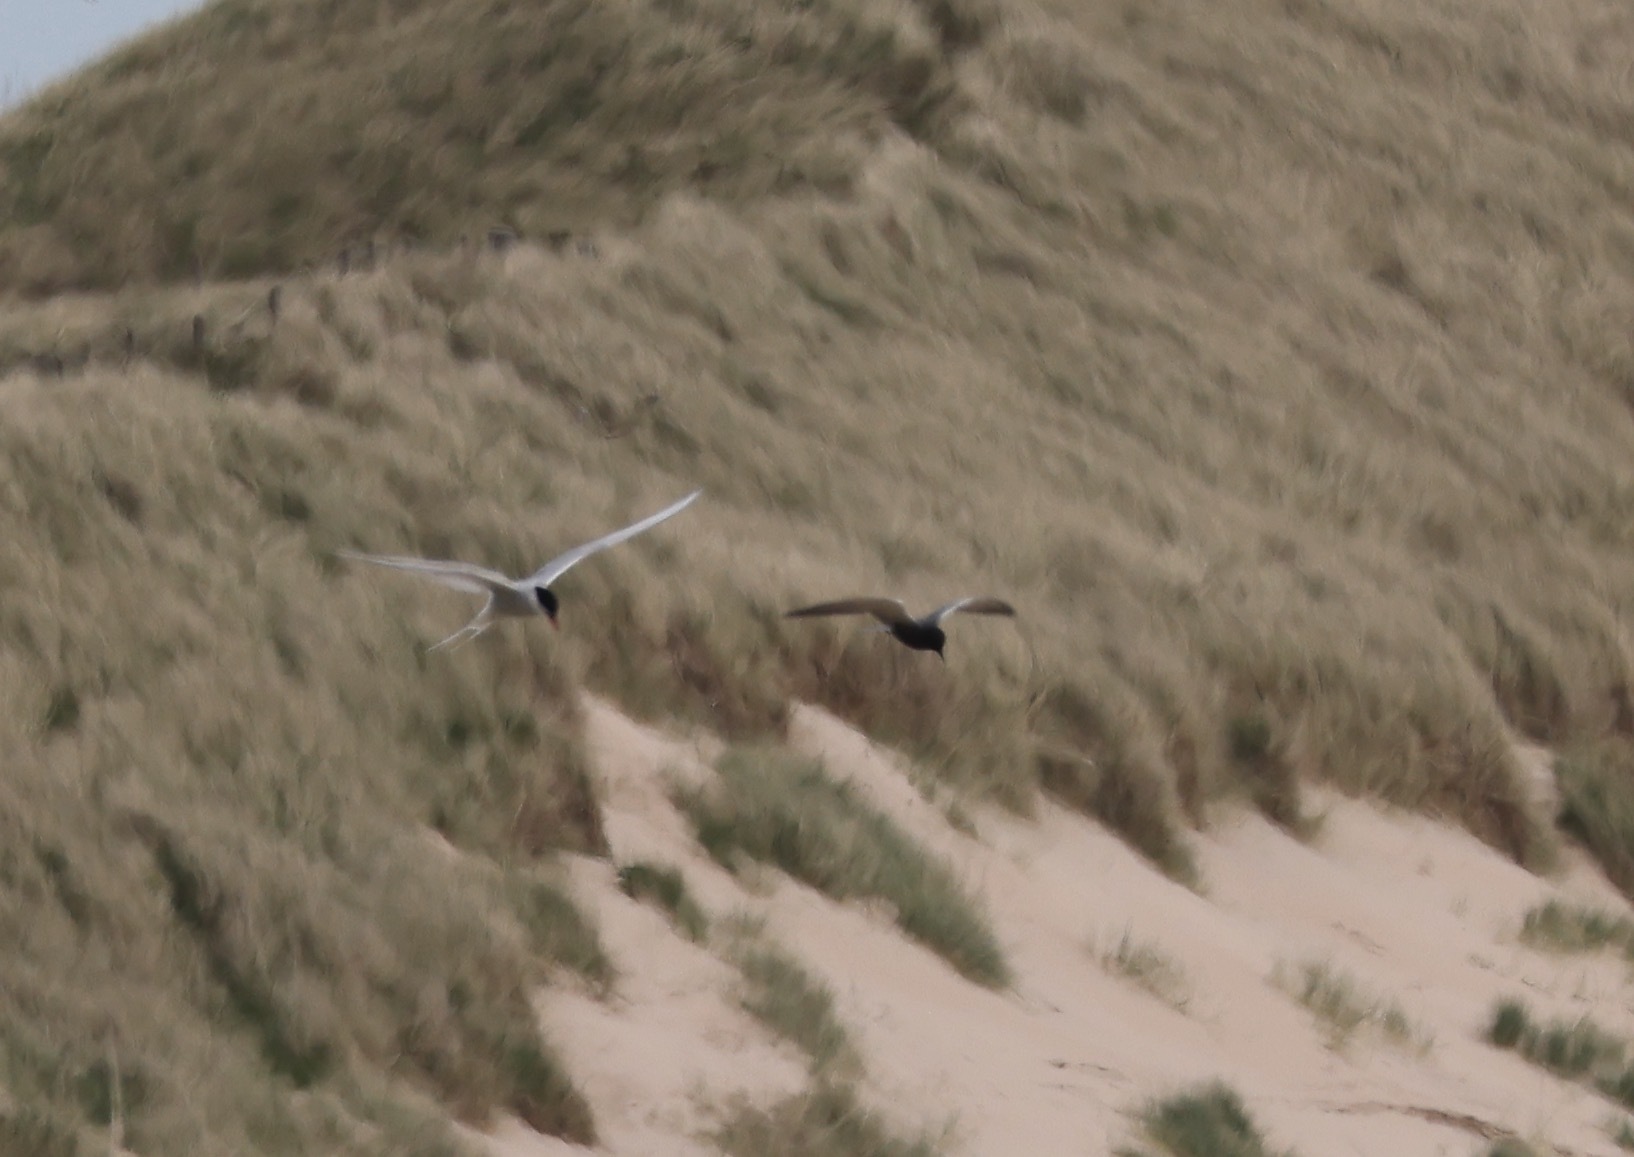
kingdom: Animalia
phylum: Chordata
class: Aves
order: Charadriiformes
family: Laridae
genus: Chlidonias
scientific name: Chlidonias niger
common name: Black tern
